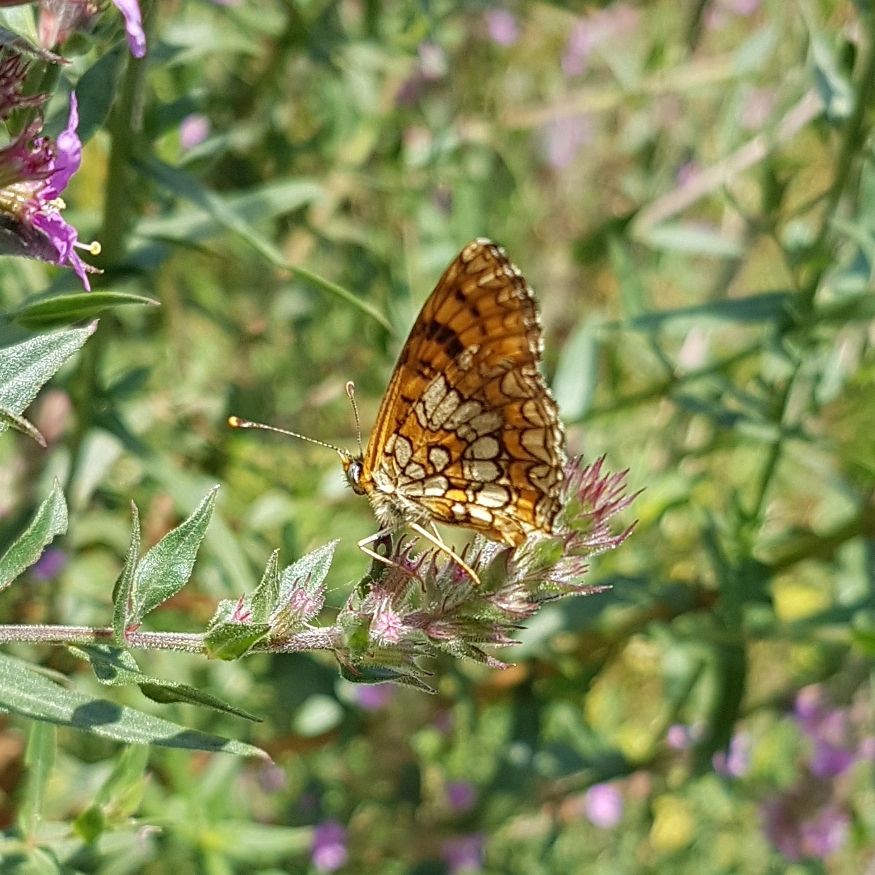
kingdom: Animalia
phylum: Arthropoda
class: Insecta
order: Lepidoptera
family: Nymphalidae
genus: Melitaea
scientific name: Melitaea deione
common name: Provençal fritillary
